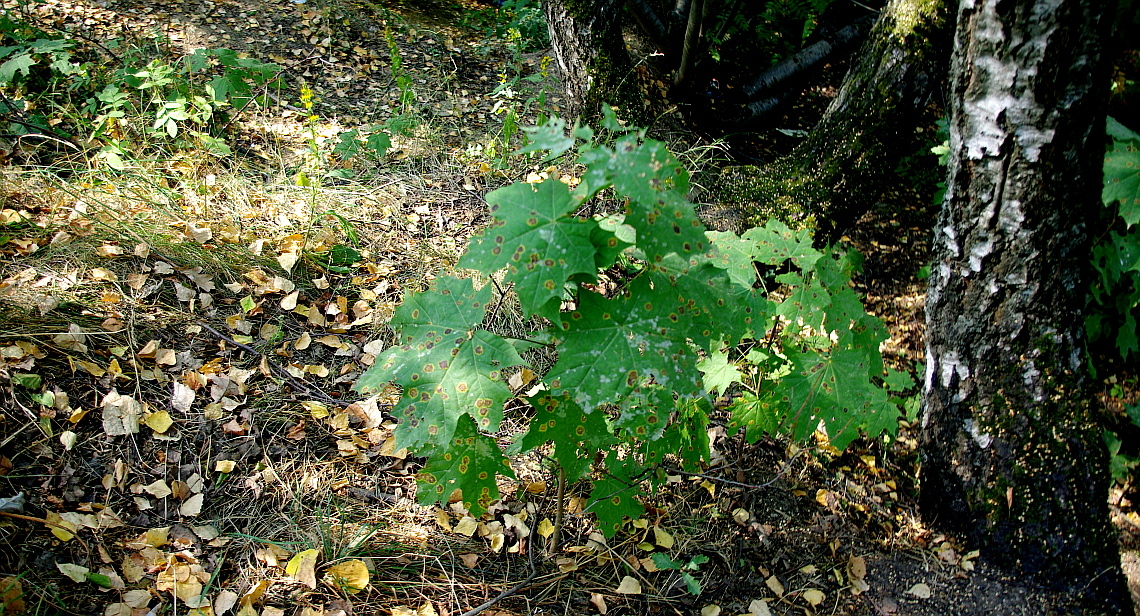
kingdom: Plantae
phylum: Tracheophyta
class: Magnoliopsida
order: Sapindales
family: Sapindaceae
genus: Acer
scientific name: Acer platanoides
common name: Norway maple
